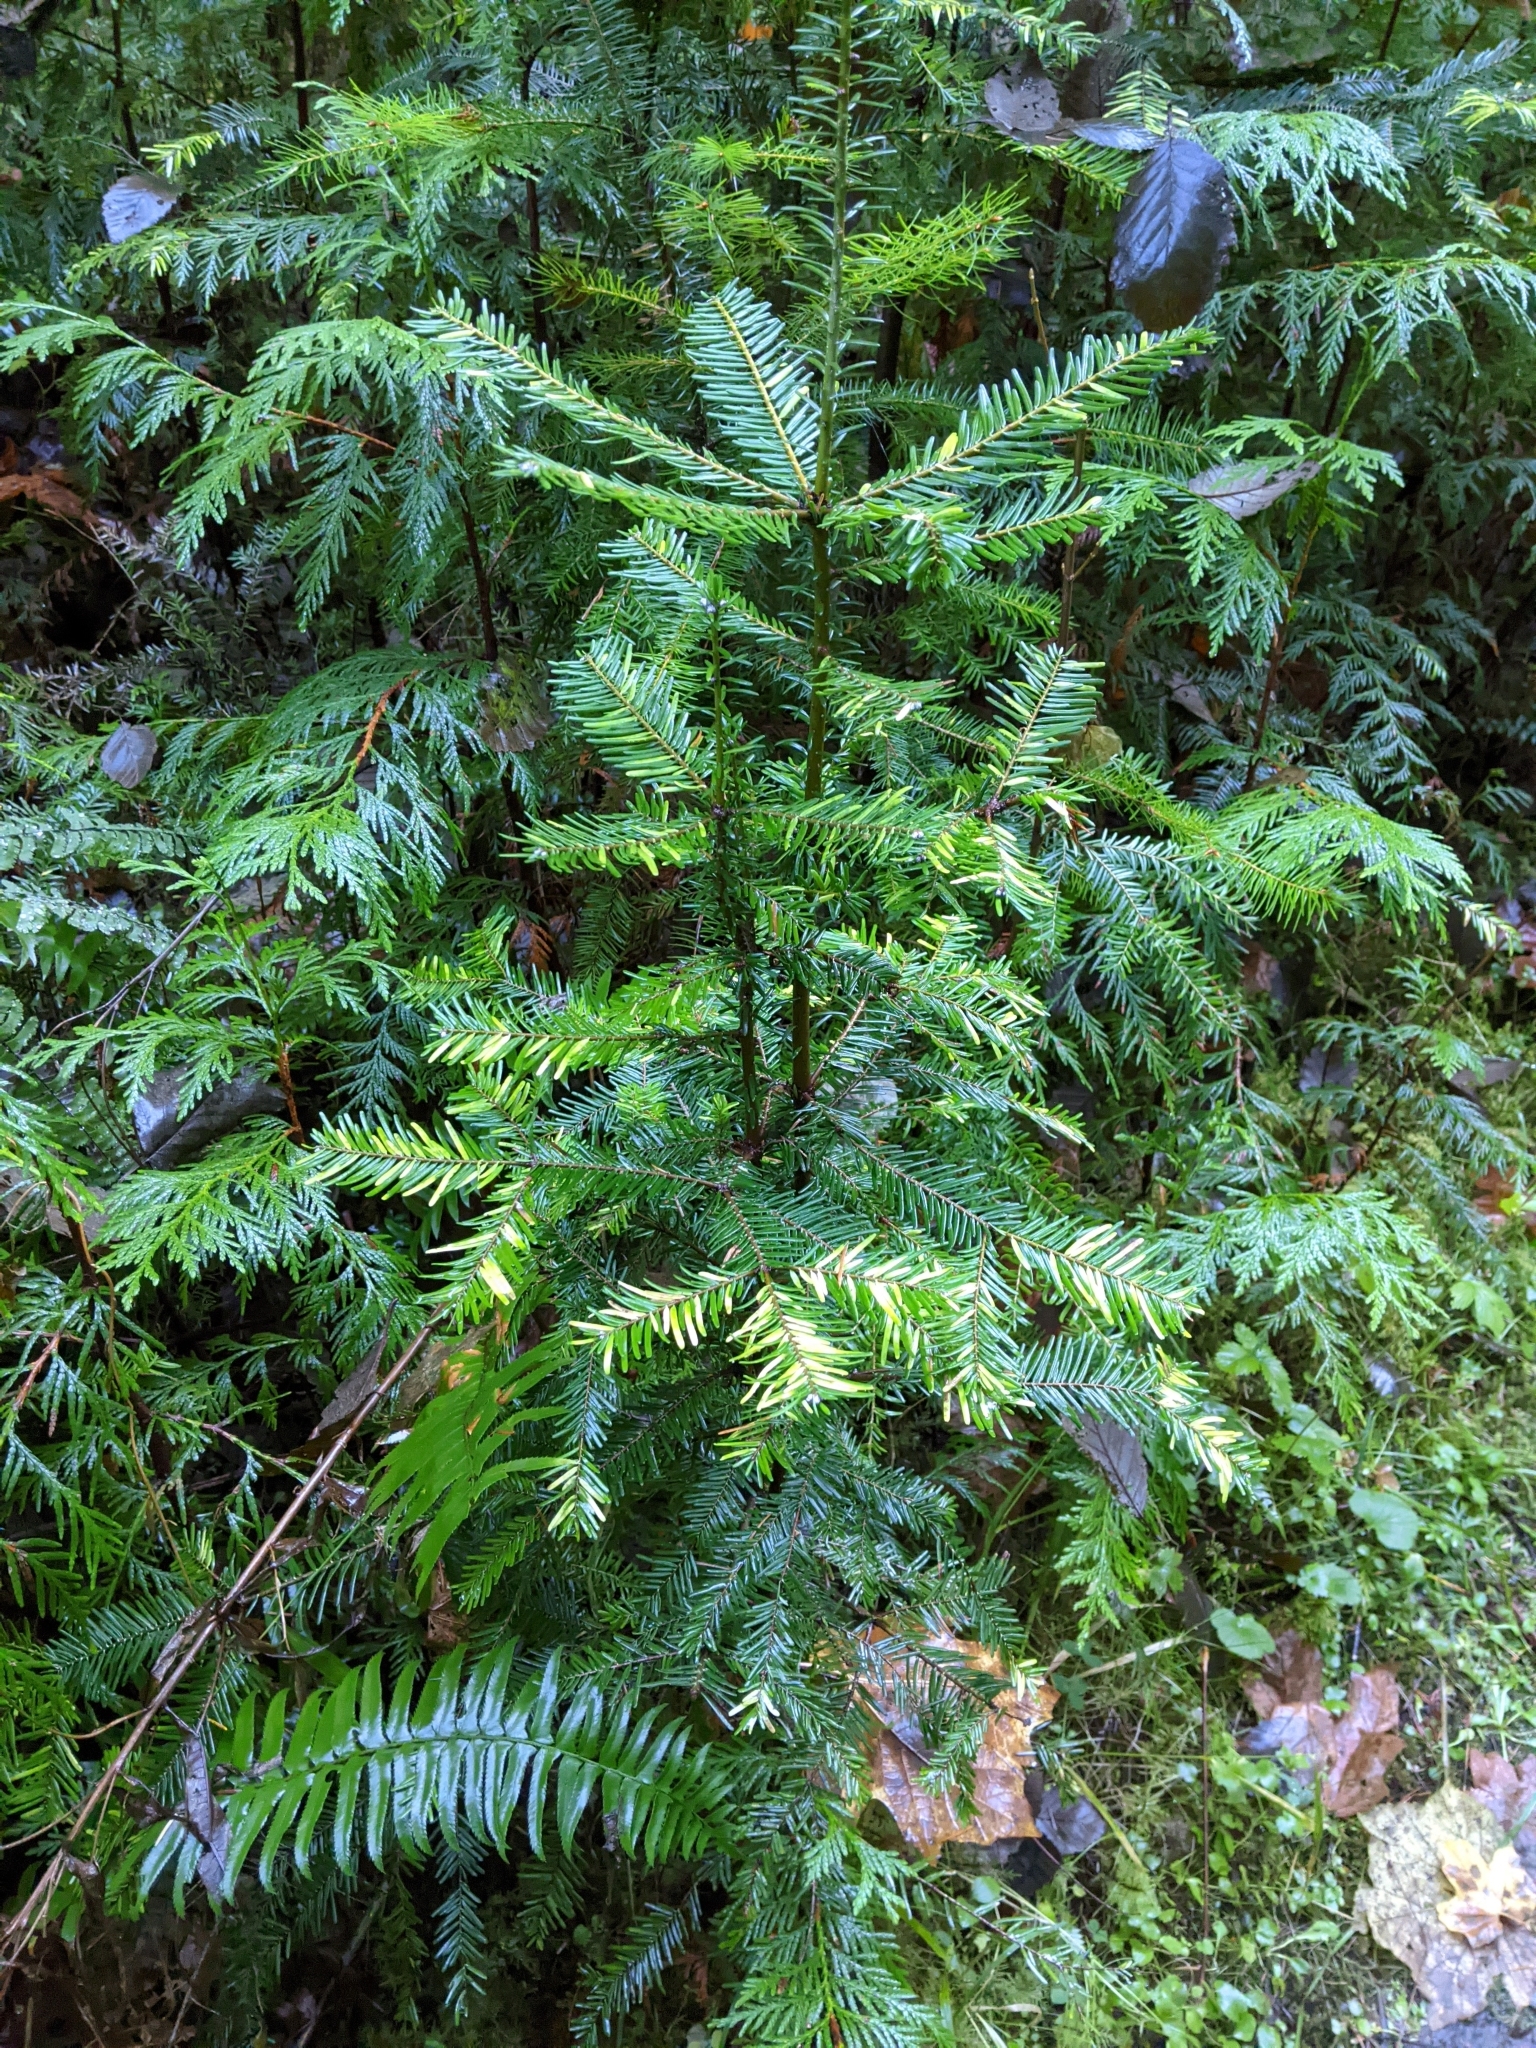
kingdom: Plantae
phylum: Tracheophyta
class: Pinopsida
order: Pinales
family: Pinaceae
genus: Abies
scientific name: Abies grandis
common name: Giant fir
